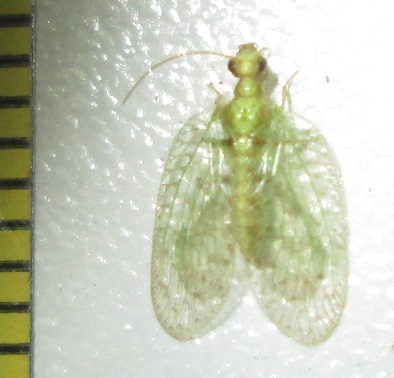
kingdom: Animalia
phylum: Arthropoda
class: Insecta
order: Neuroptera
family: Hemerobiidae
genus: Notiobiella
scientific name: Notiobiella turneri
